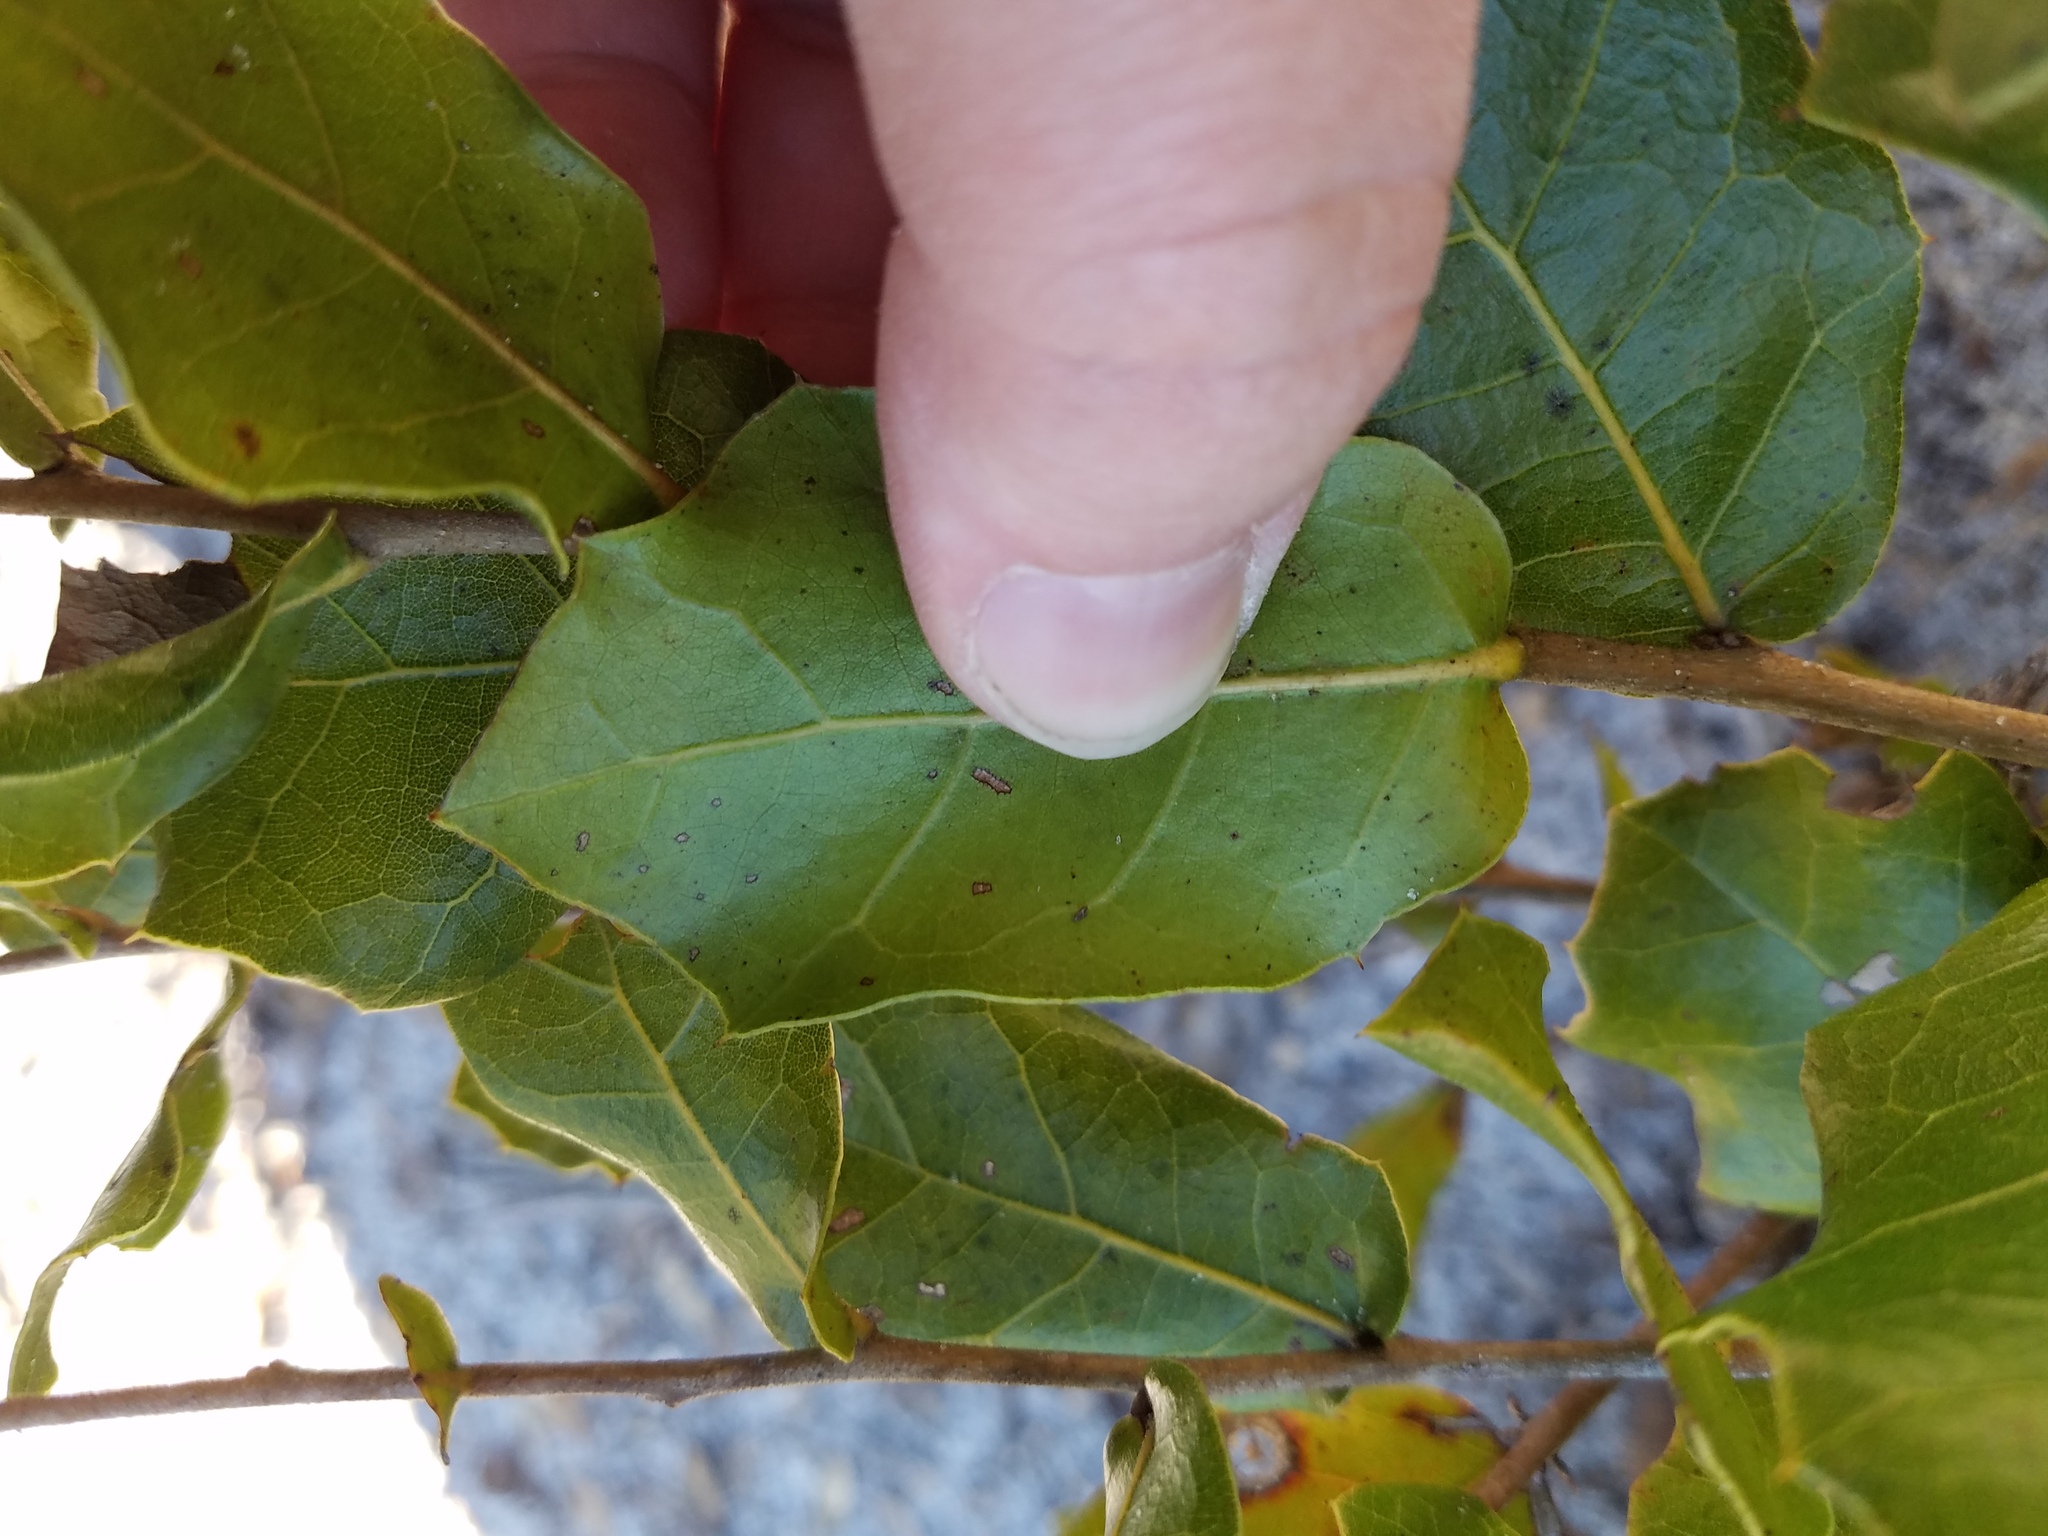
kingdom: Plantae
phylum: Tracheophyta
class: Magnoliopsida
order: Fagales
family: Fagaceae
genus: Quercus
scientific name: Quercus myrtifolia
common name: Myrtle oak
